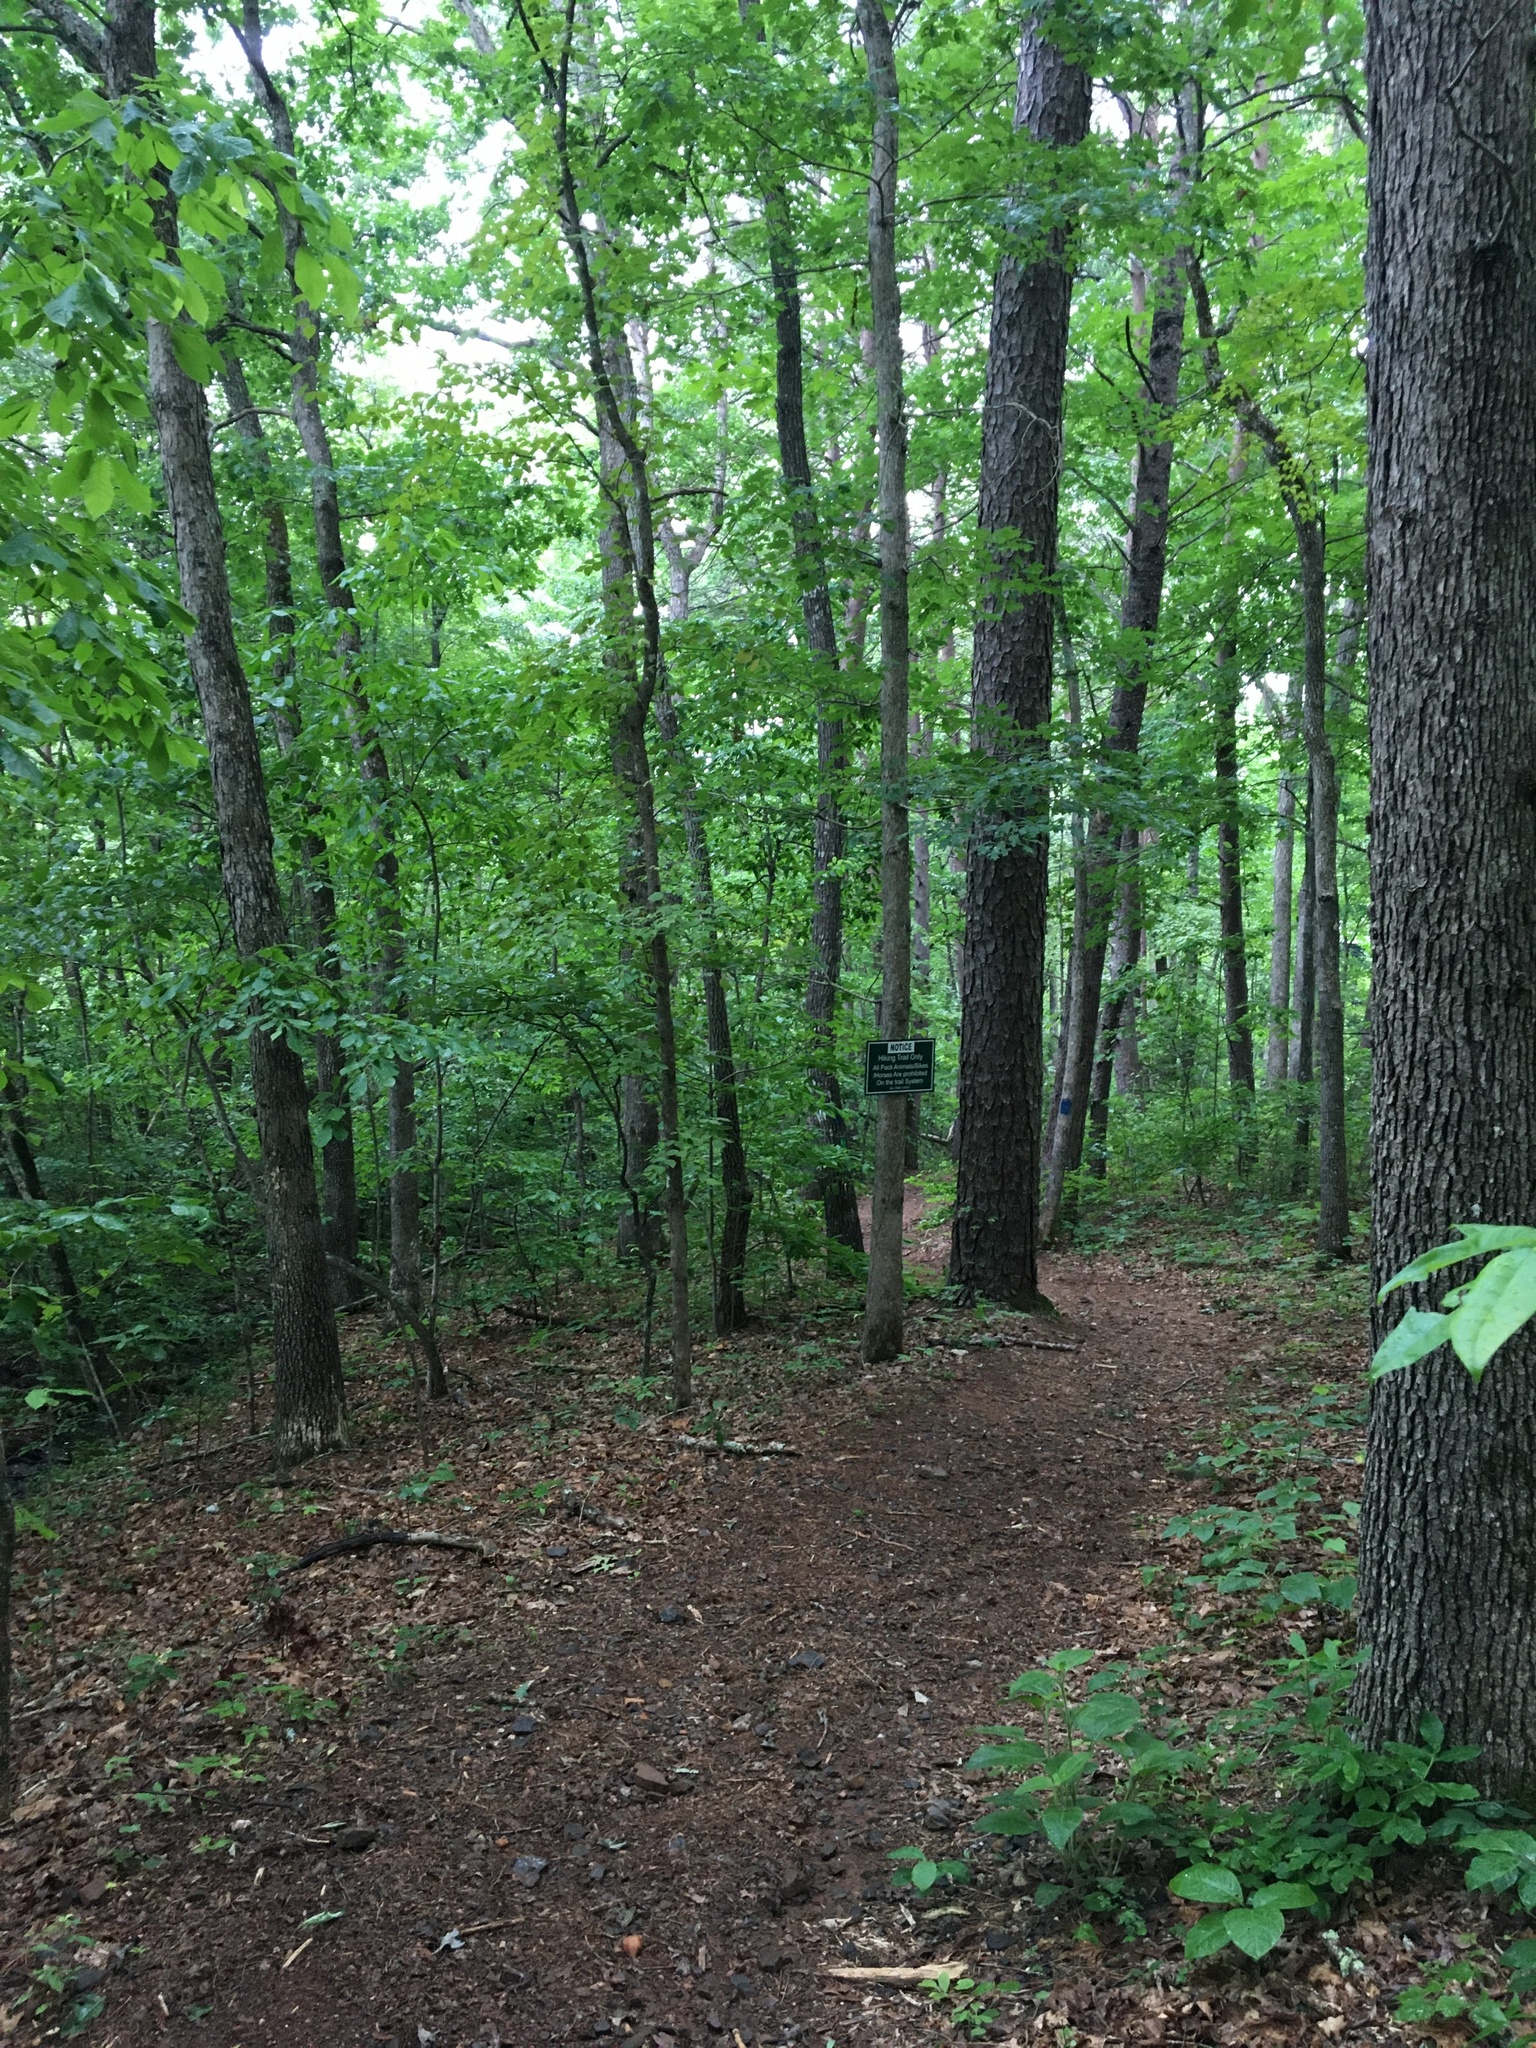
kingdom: Animalia
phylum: Chordata
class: Aves
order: Accipitriformes
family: Accipitridae
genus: Buteo
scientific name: Buteo platypterus
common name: Broad-winged hawk
